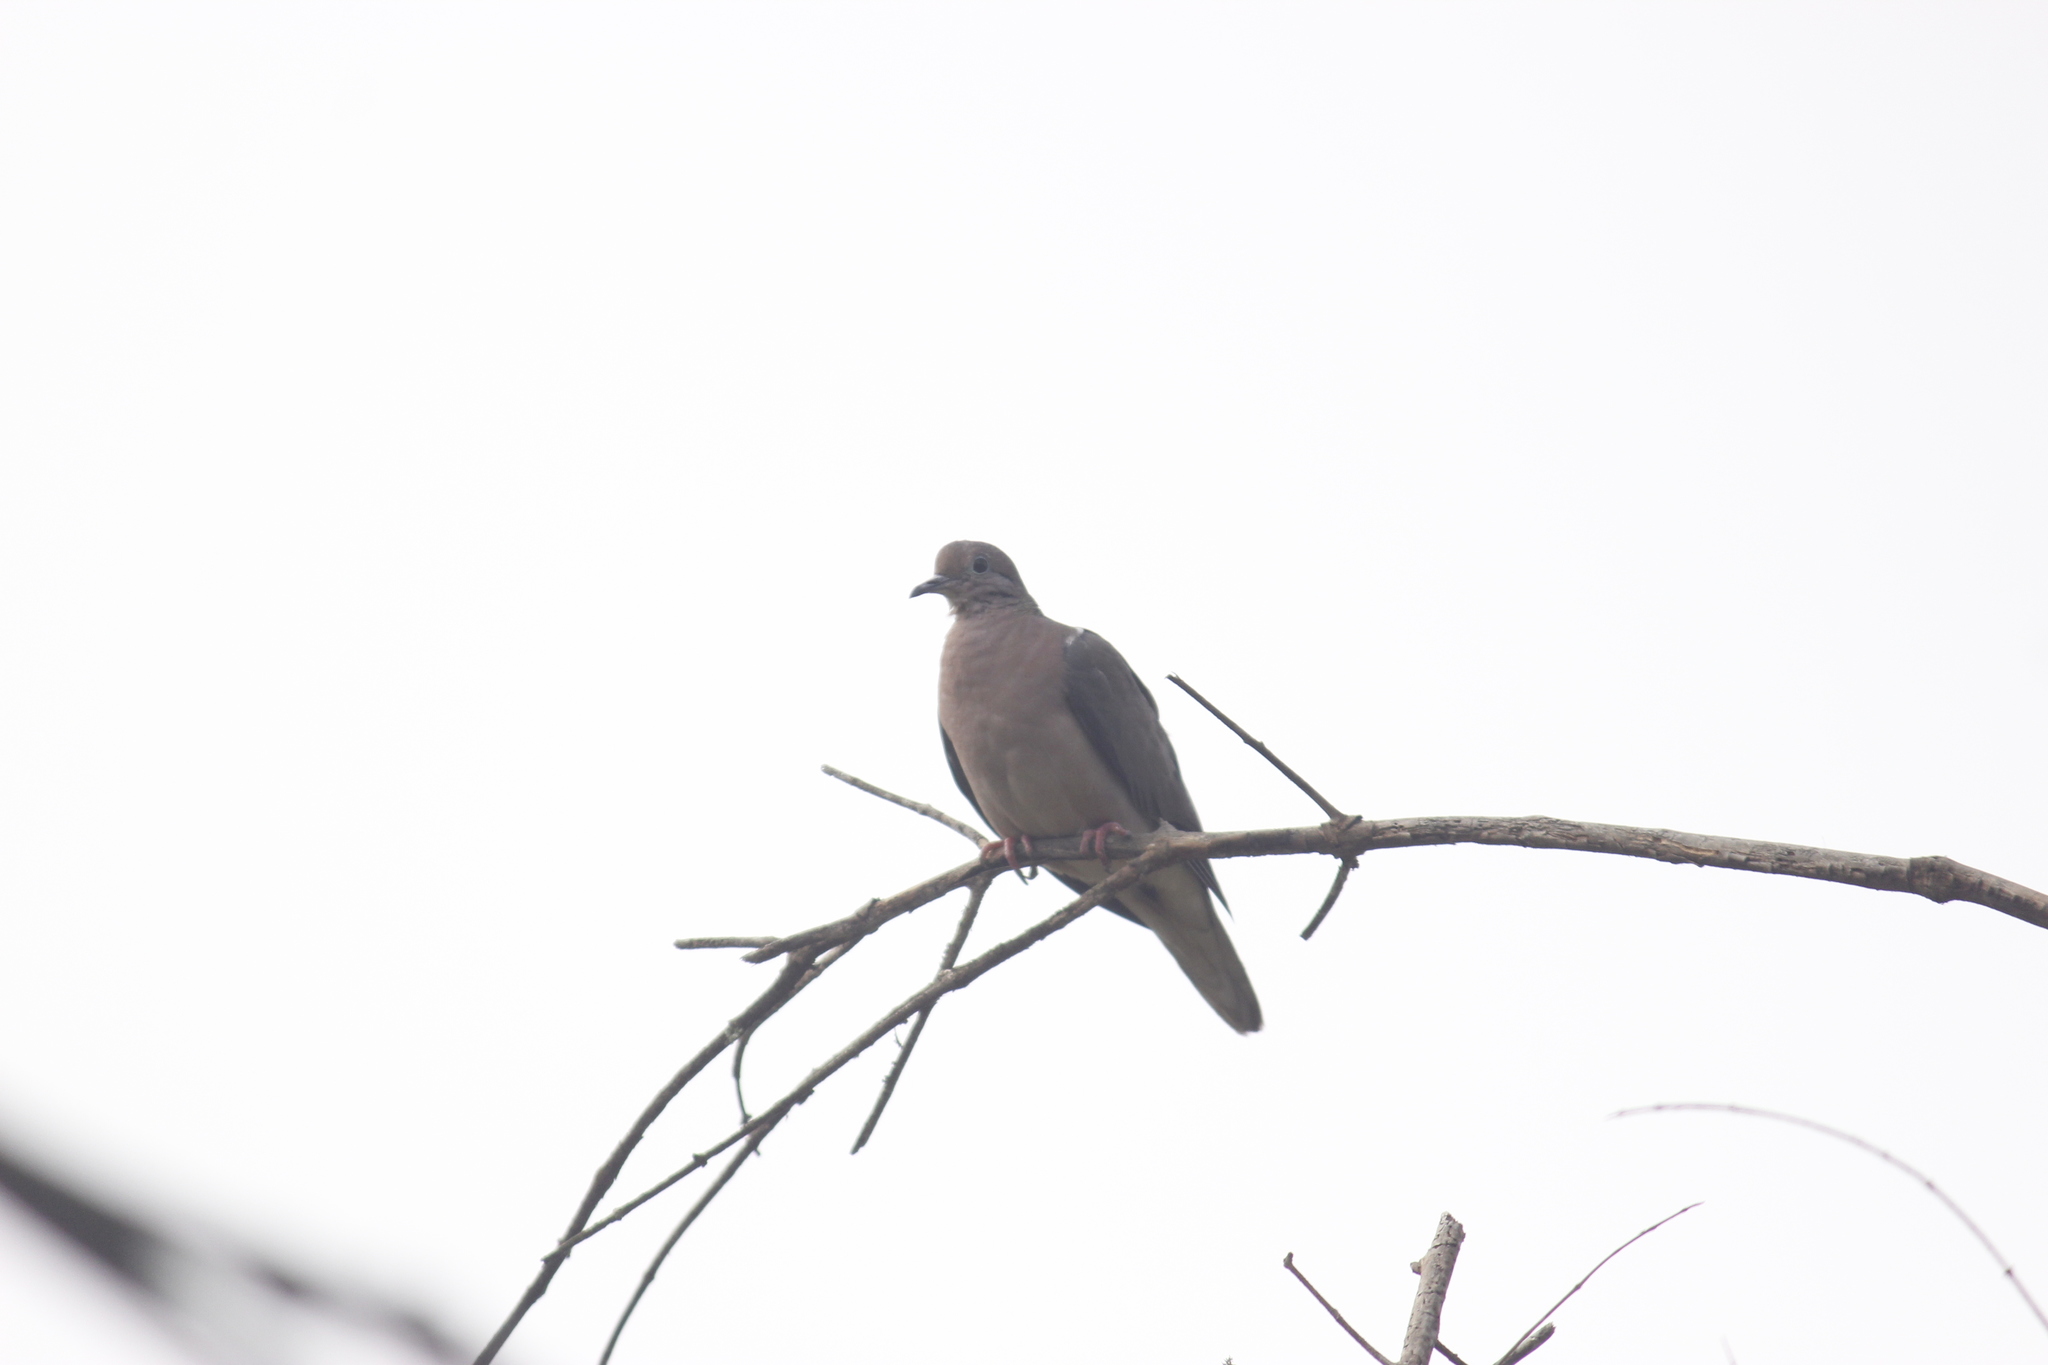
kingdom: Animalia
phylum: Chordata
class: Aves
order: Columbiformes
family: Columbidae
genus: Zenaida
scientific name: Zenaida auriculata
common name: Eared dove
